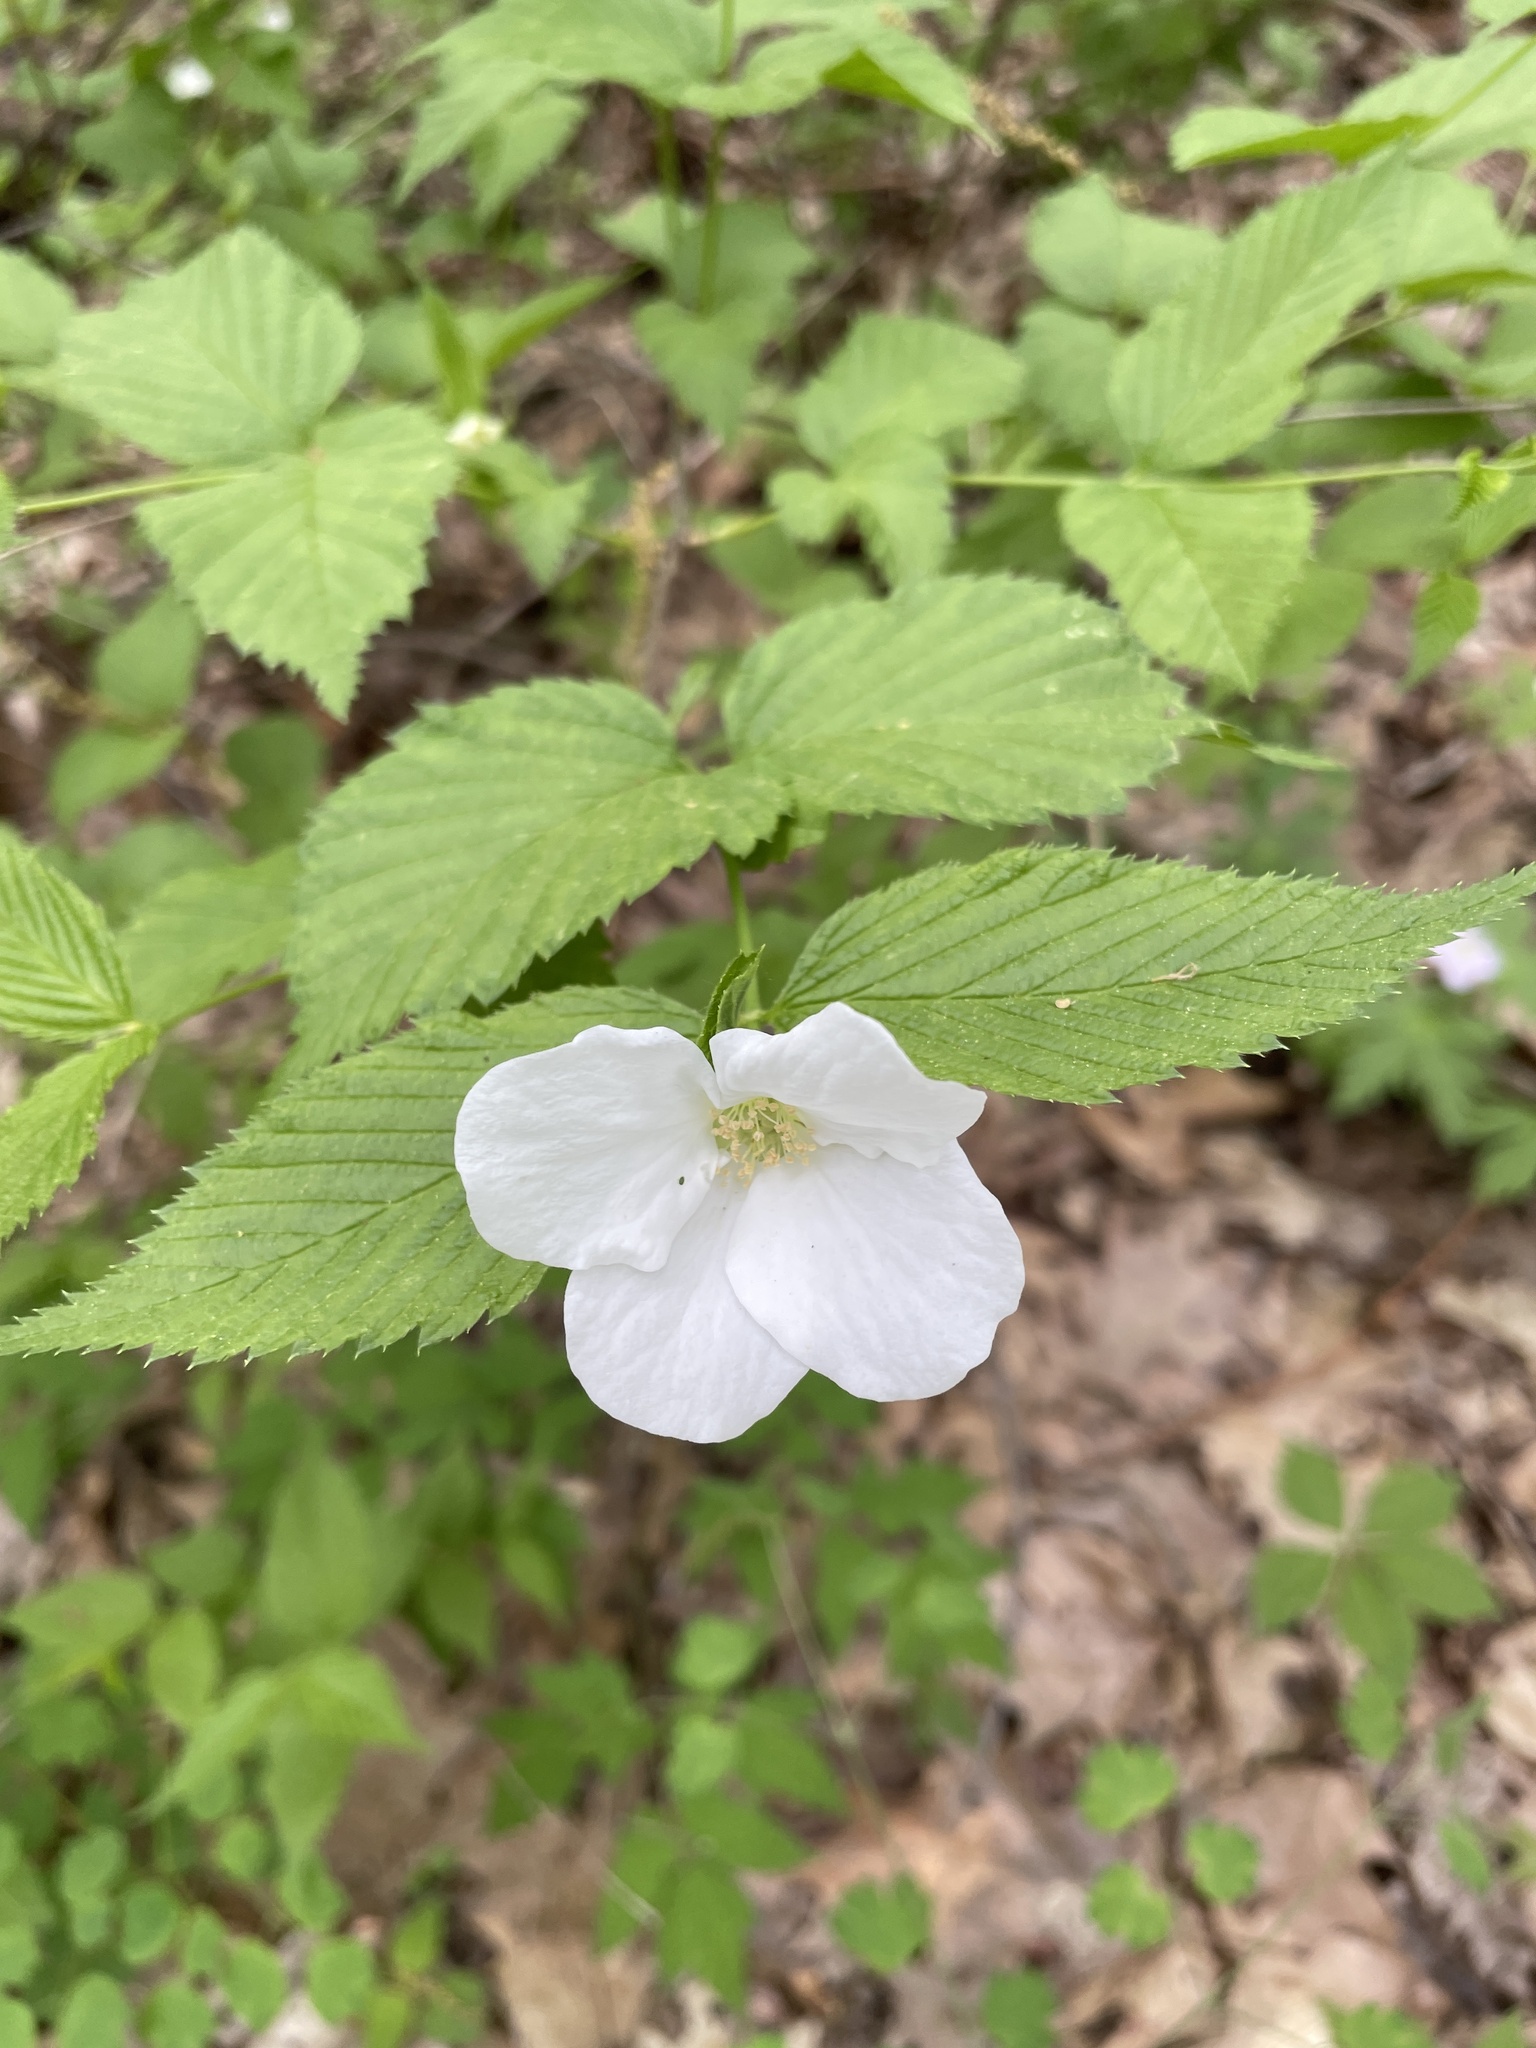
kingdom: Plantae
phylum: Tracheophyta
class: Magnoliopsida
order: Rosales
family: Rosaceae
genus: Rhodotypos
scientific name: Rhodotypos scandens
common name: Jetbead
